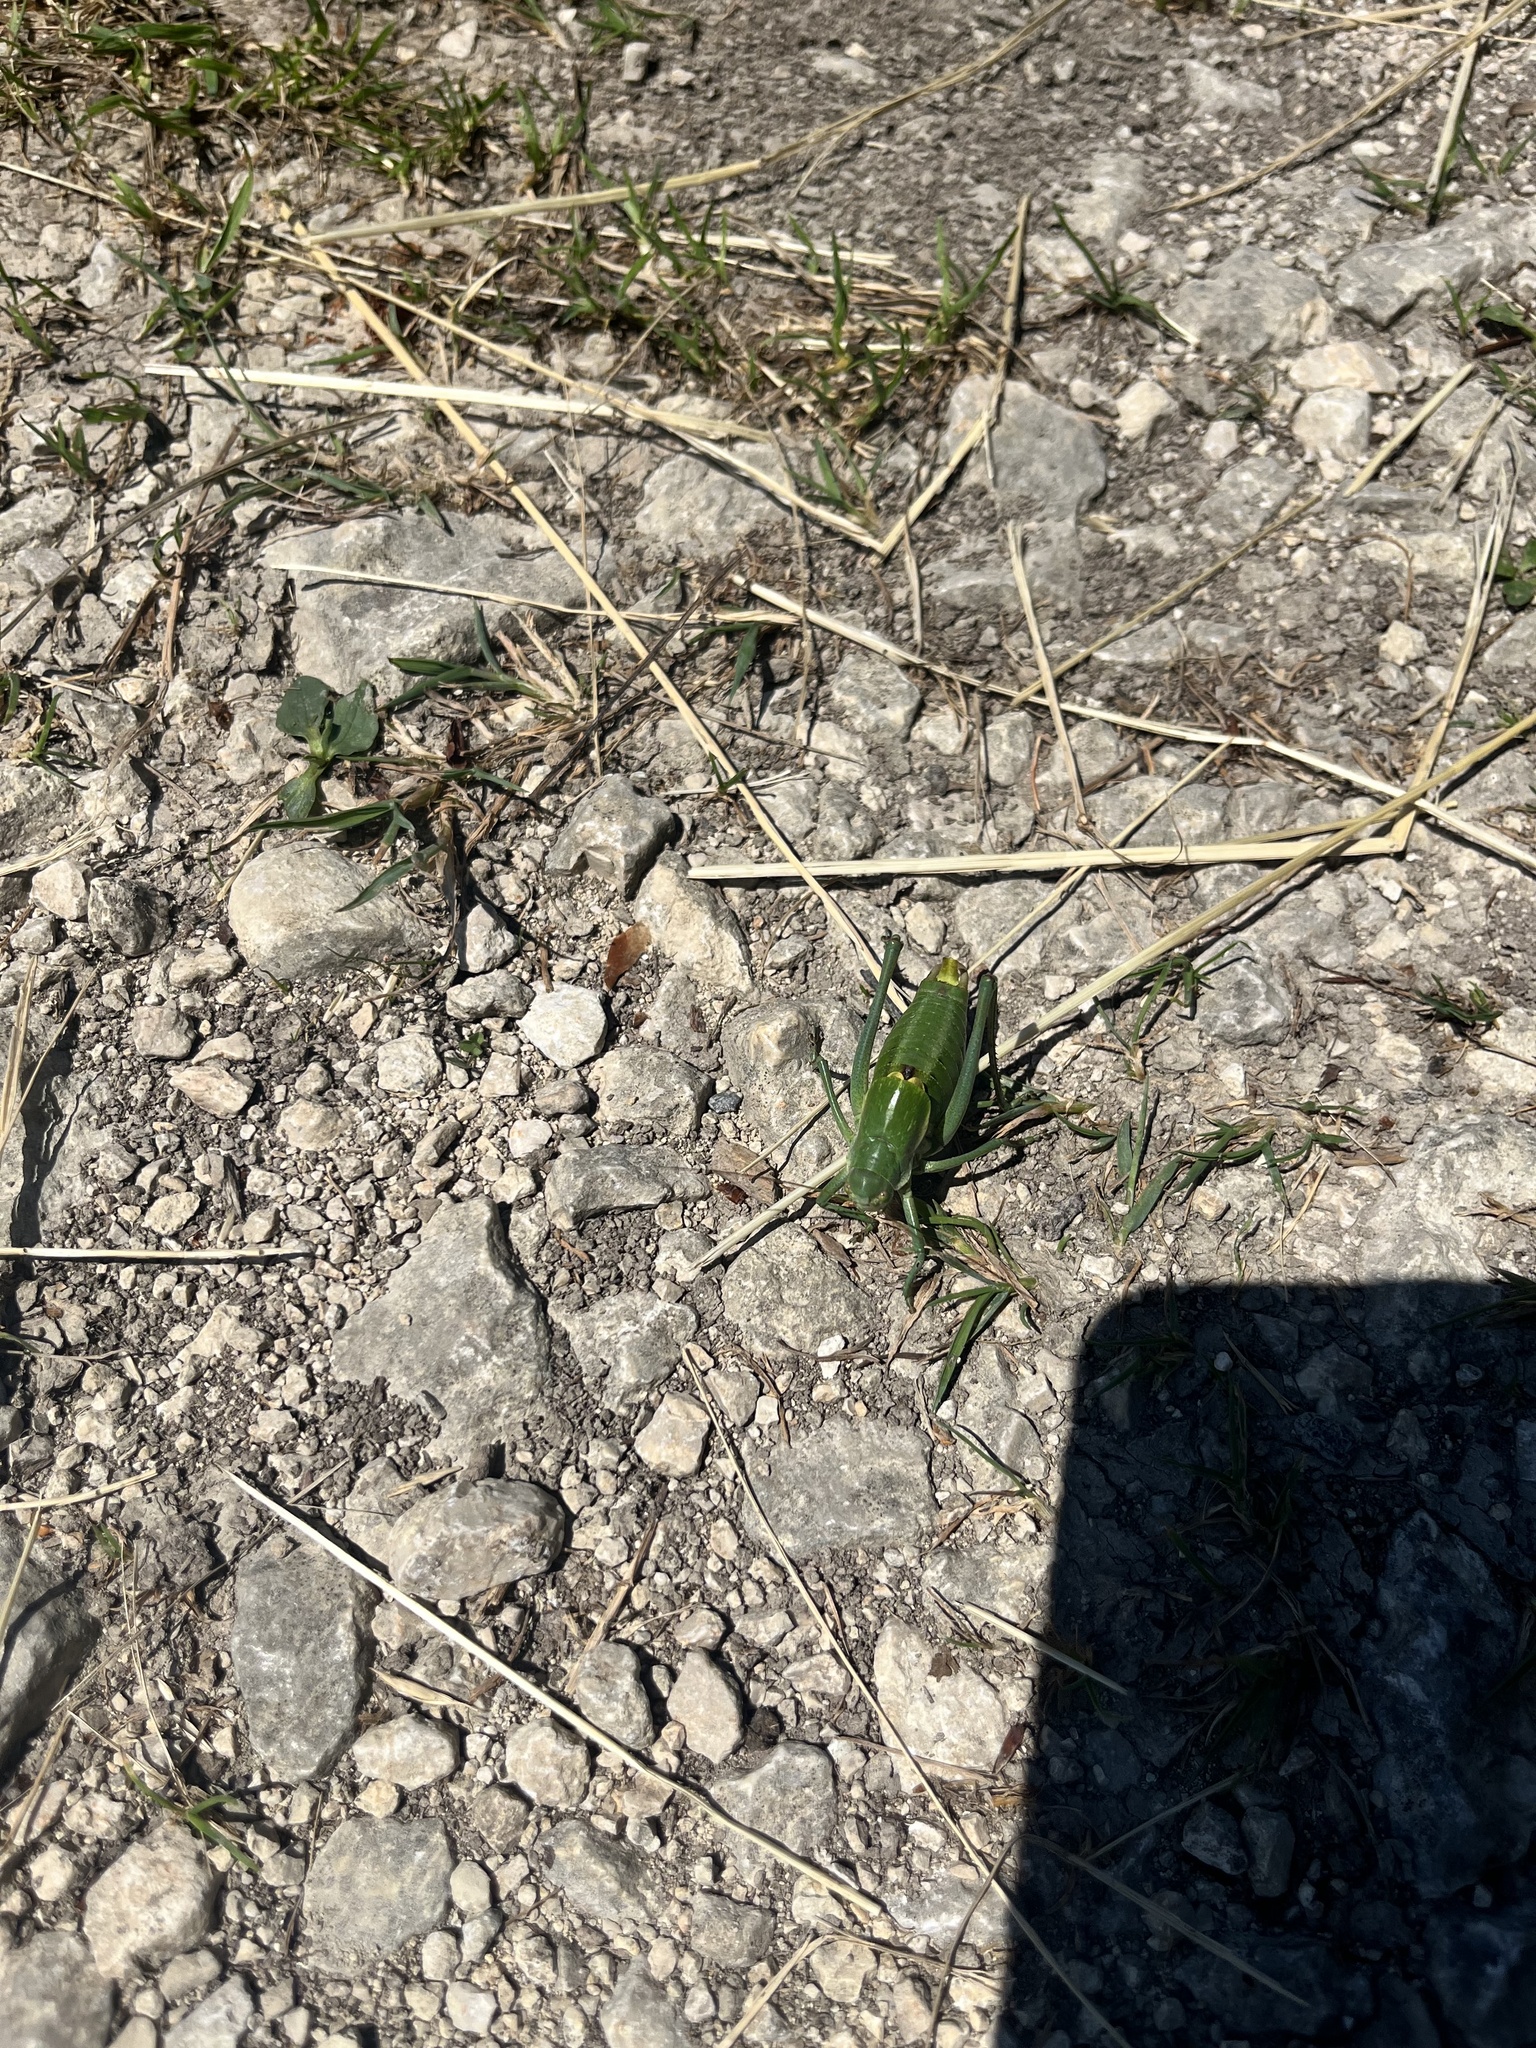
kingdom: Animalia
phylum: Arthropoda
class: Insecta
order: Orthoptera
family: Tettigoniidae
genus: Polysarcus
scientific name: Polysarcus denticauda
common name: Large saw-tailed bush-cricket
